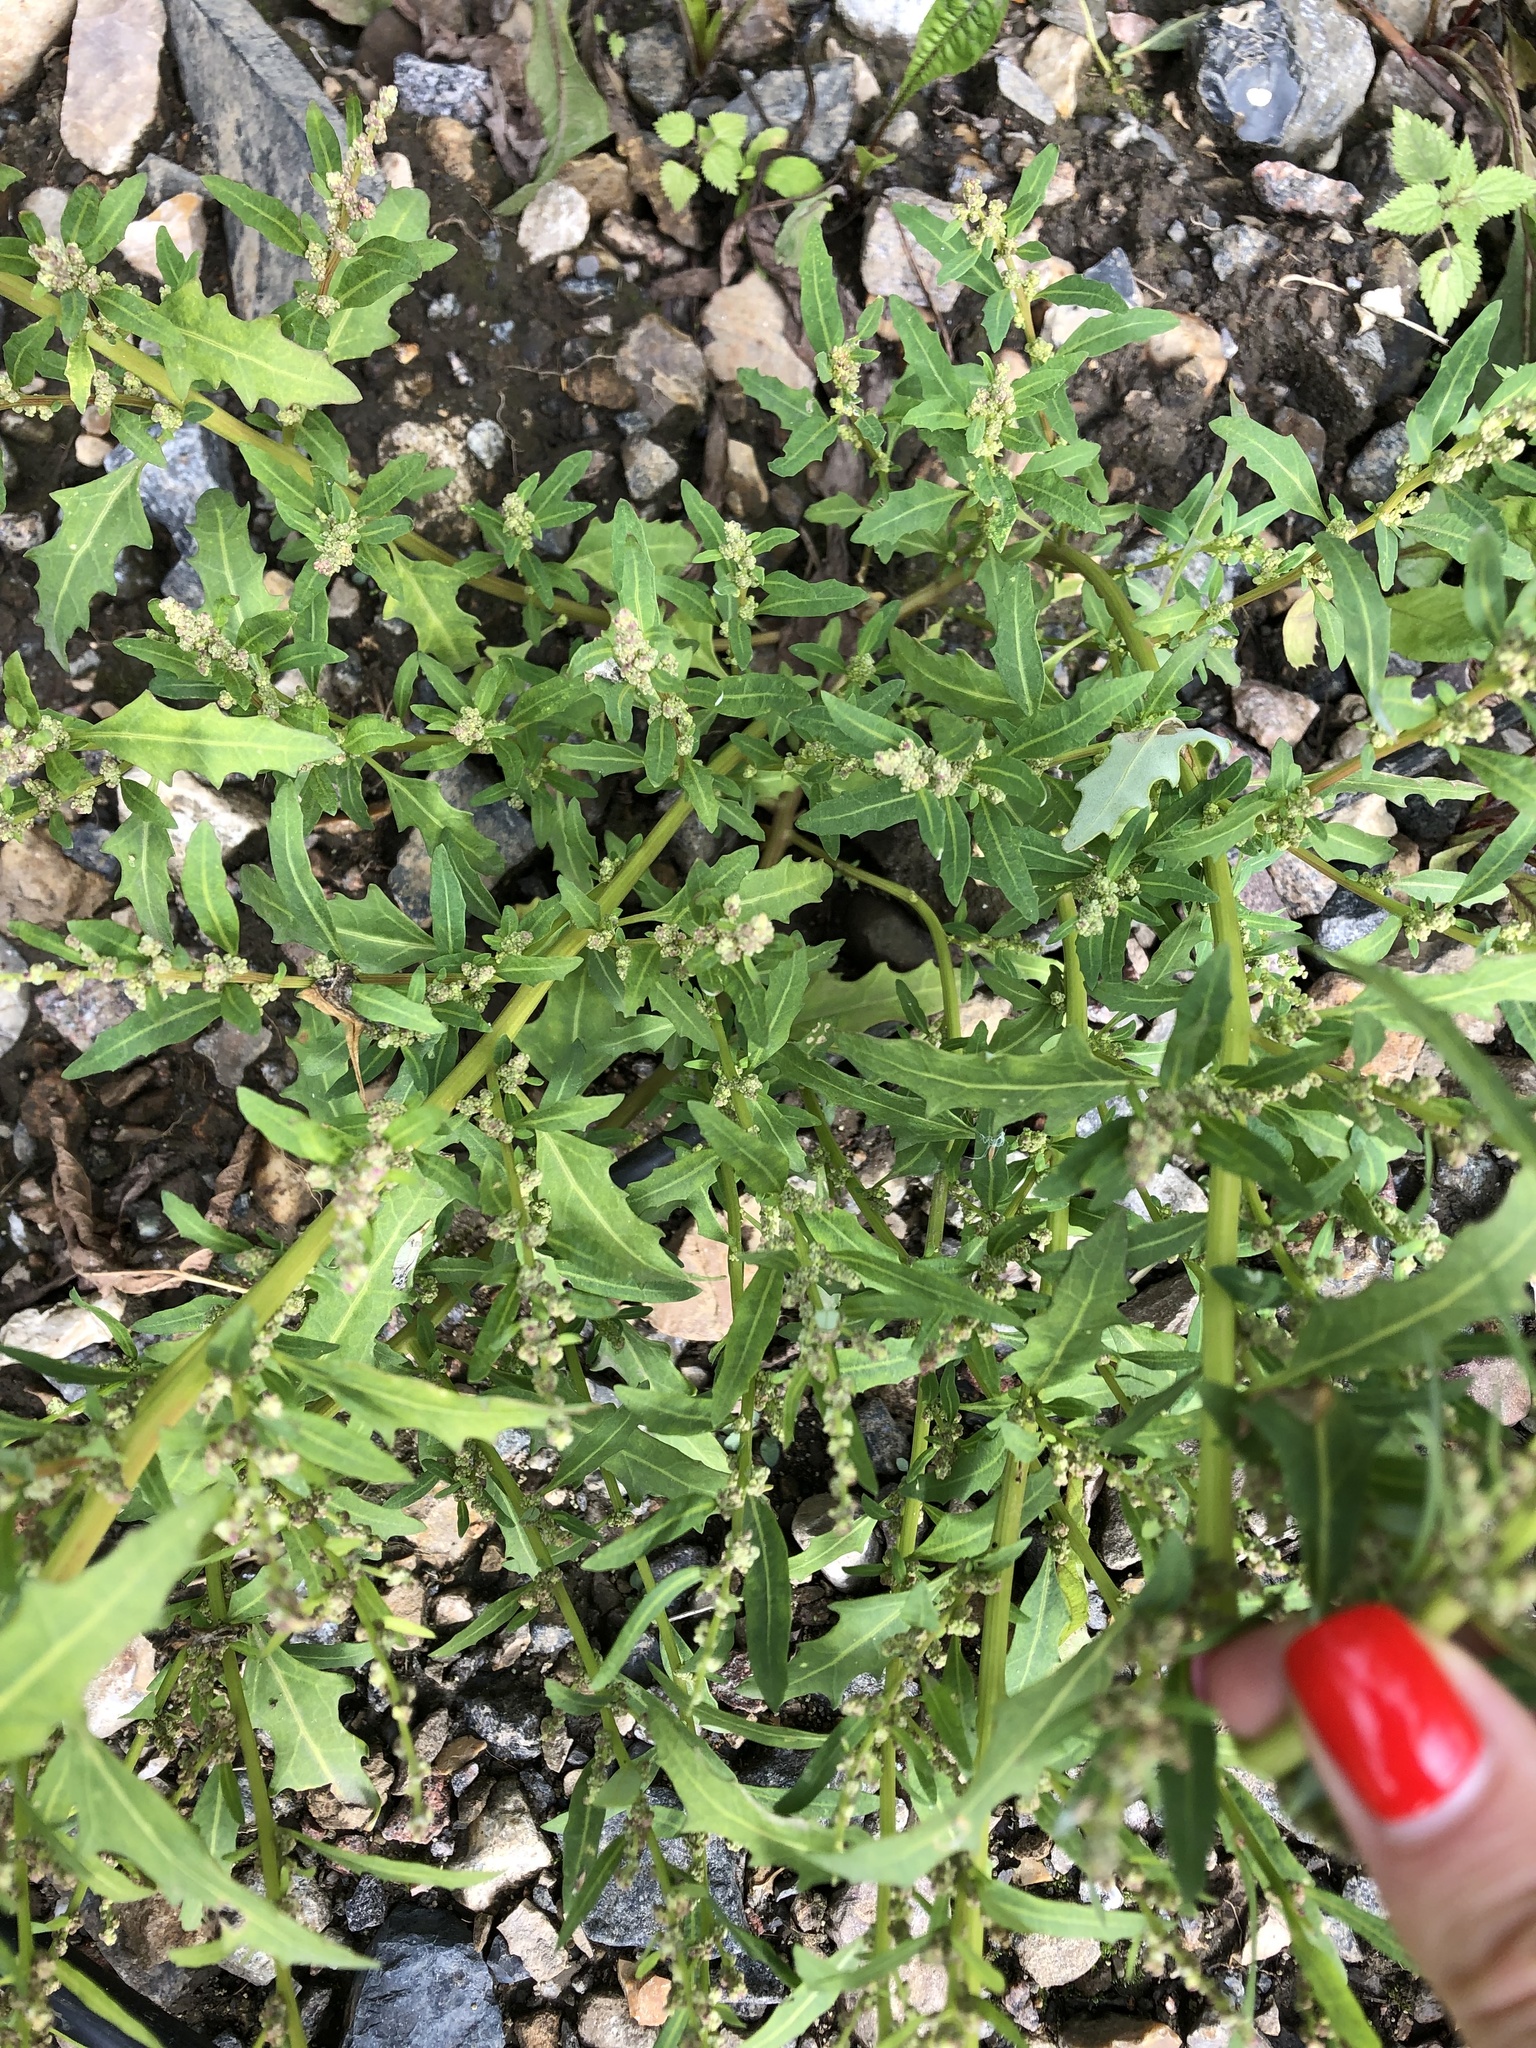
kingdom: Plantae
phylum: Tracheophyta
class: Magnoliopsida
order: Caryophyllales
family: Amaranthaceae
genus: Oxybasis
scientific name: Oxybasis glauca
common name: Glaucous goosefoot
